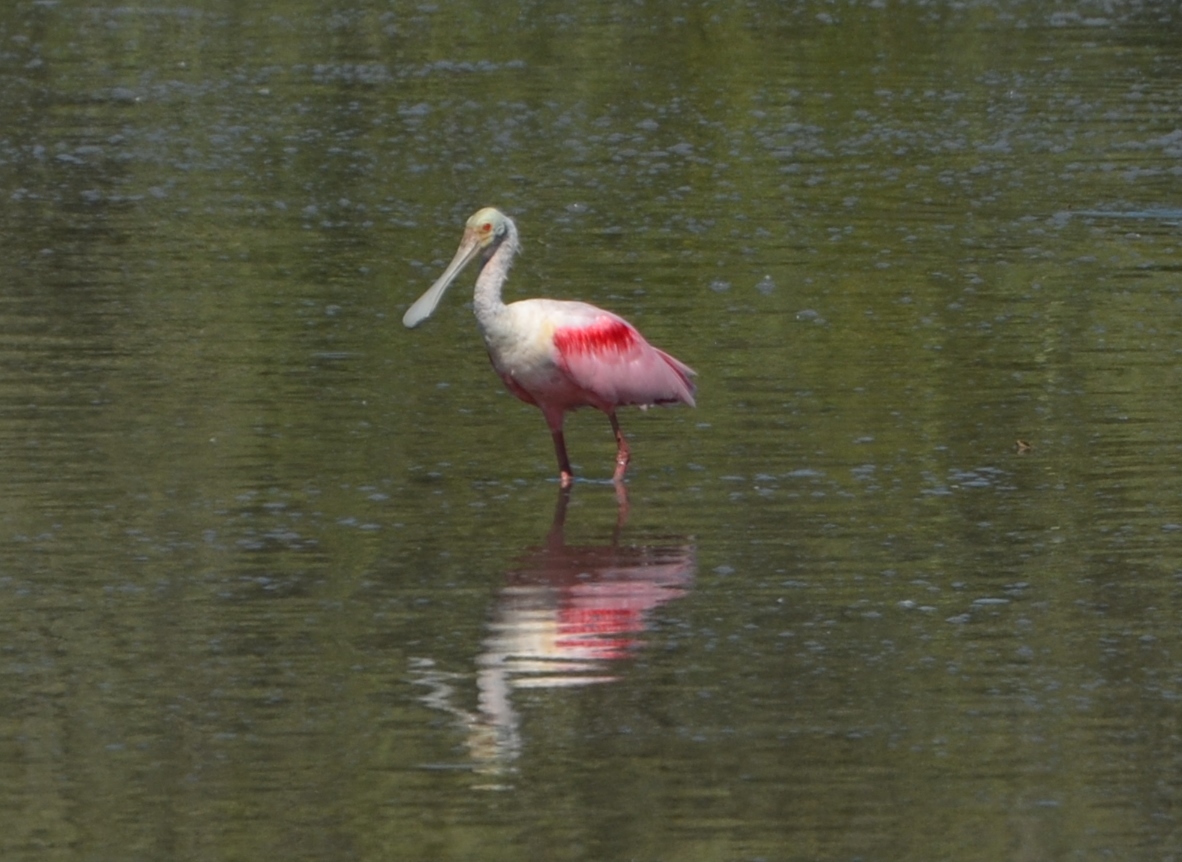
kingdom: Animalia
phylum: Chordata
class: Aves
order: Pelecaniformes
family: Threskiornithidae
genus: Platalea
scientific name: Platalea ajaja
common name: Roseate spoonbill
